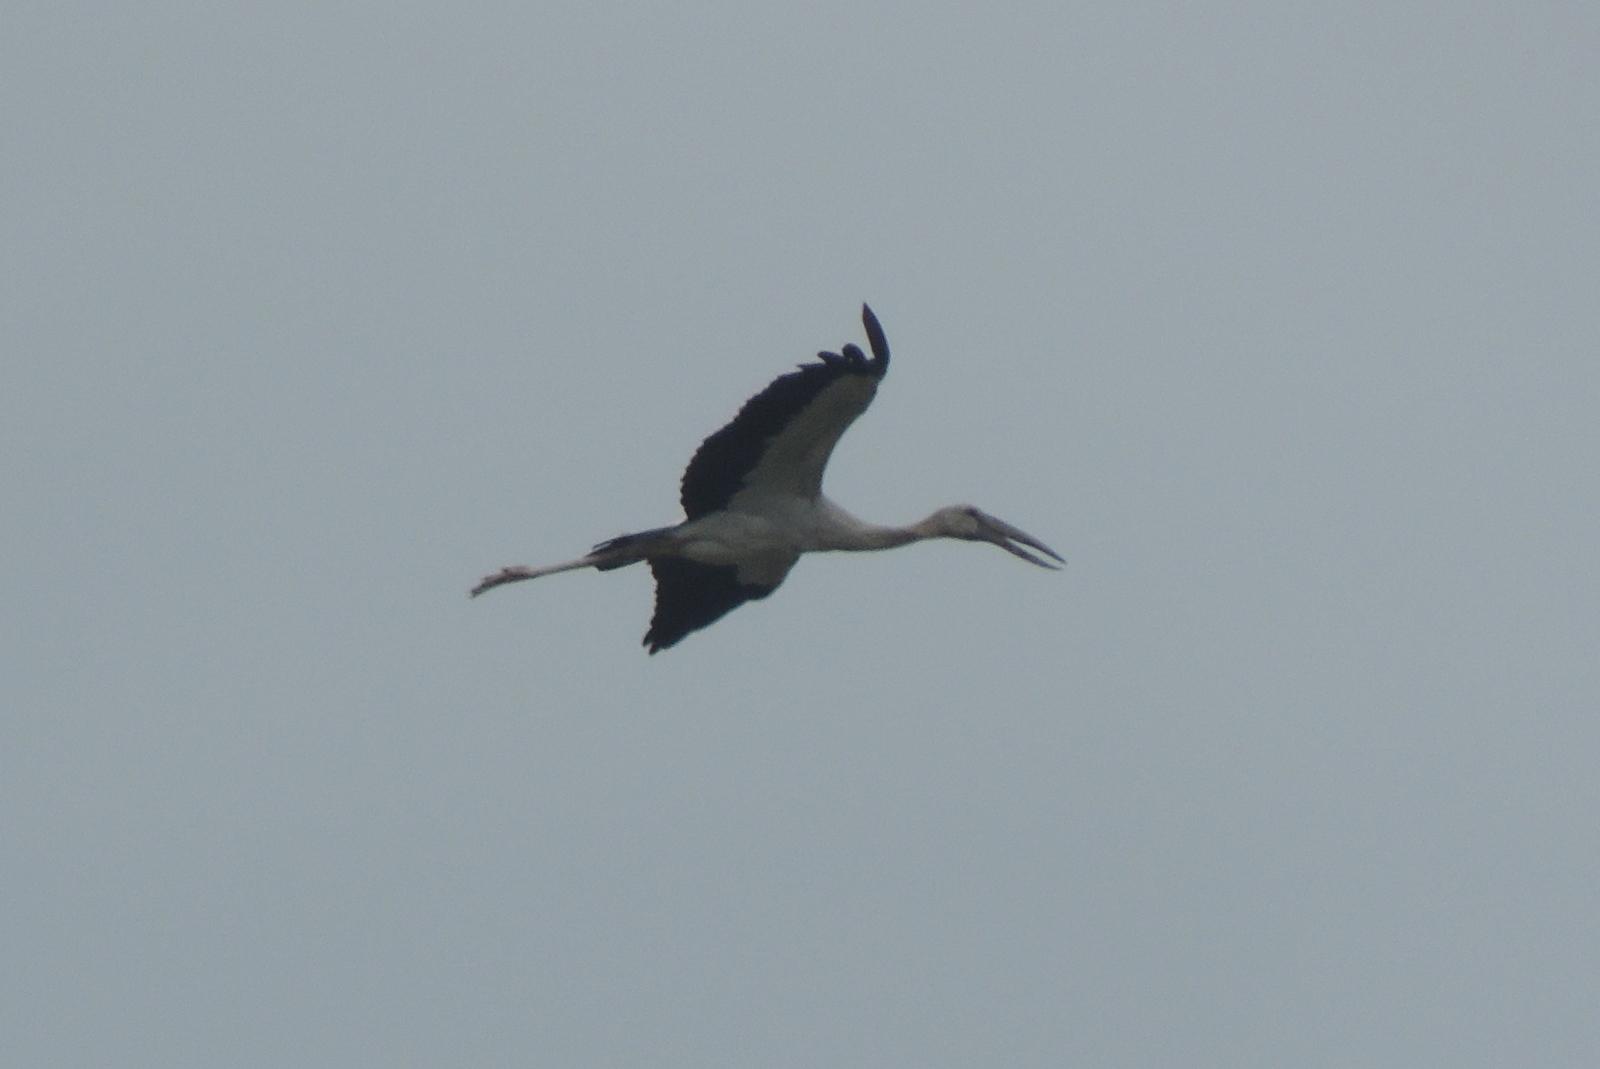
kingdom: Animalia
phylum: Chordata
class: Aves
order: Ciconiiformes
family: Ciconiidae
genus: Anastomus
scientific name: Anastomus oscitans
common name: Asian openbill
